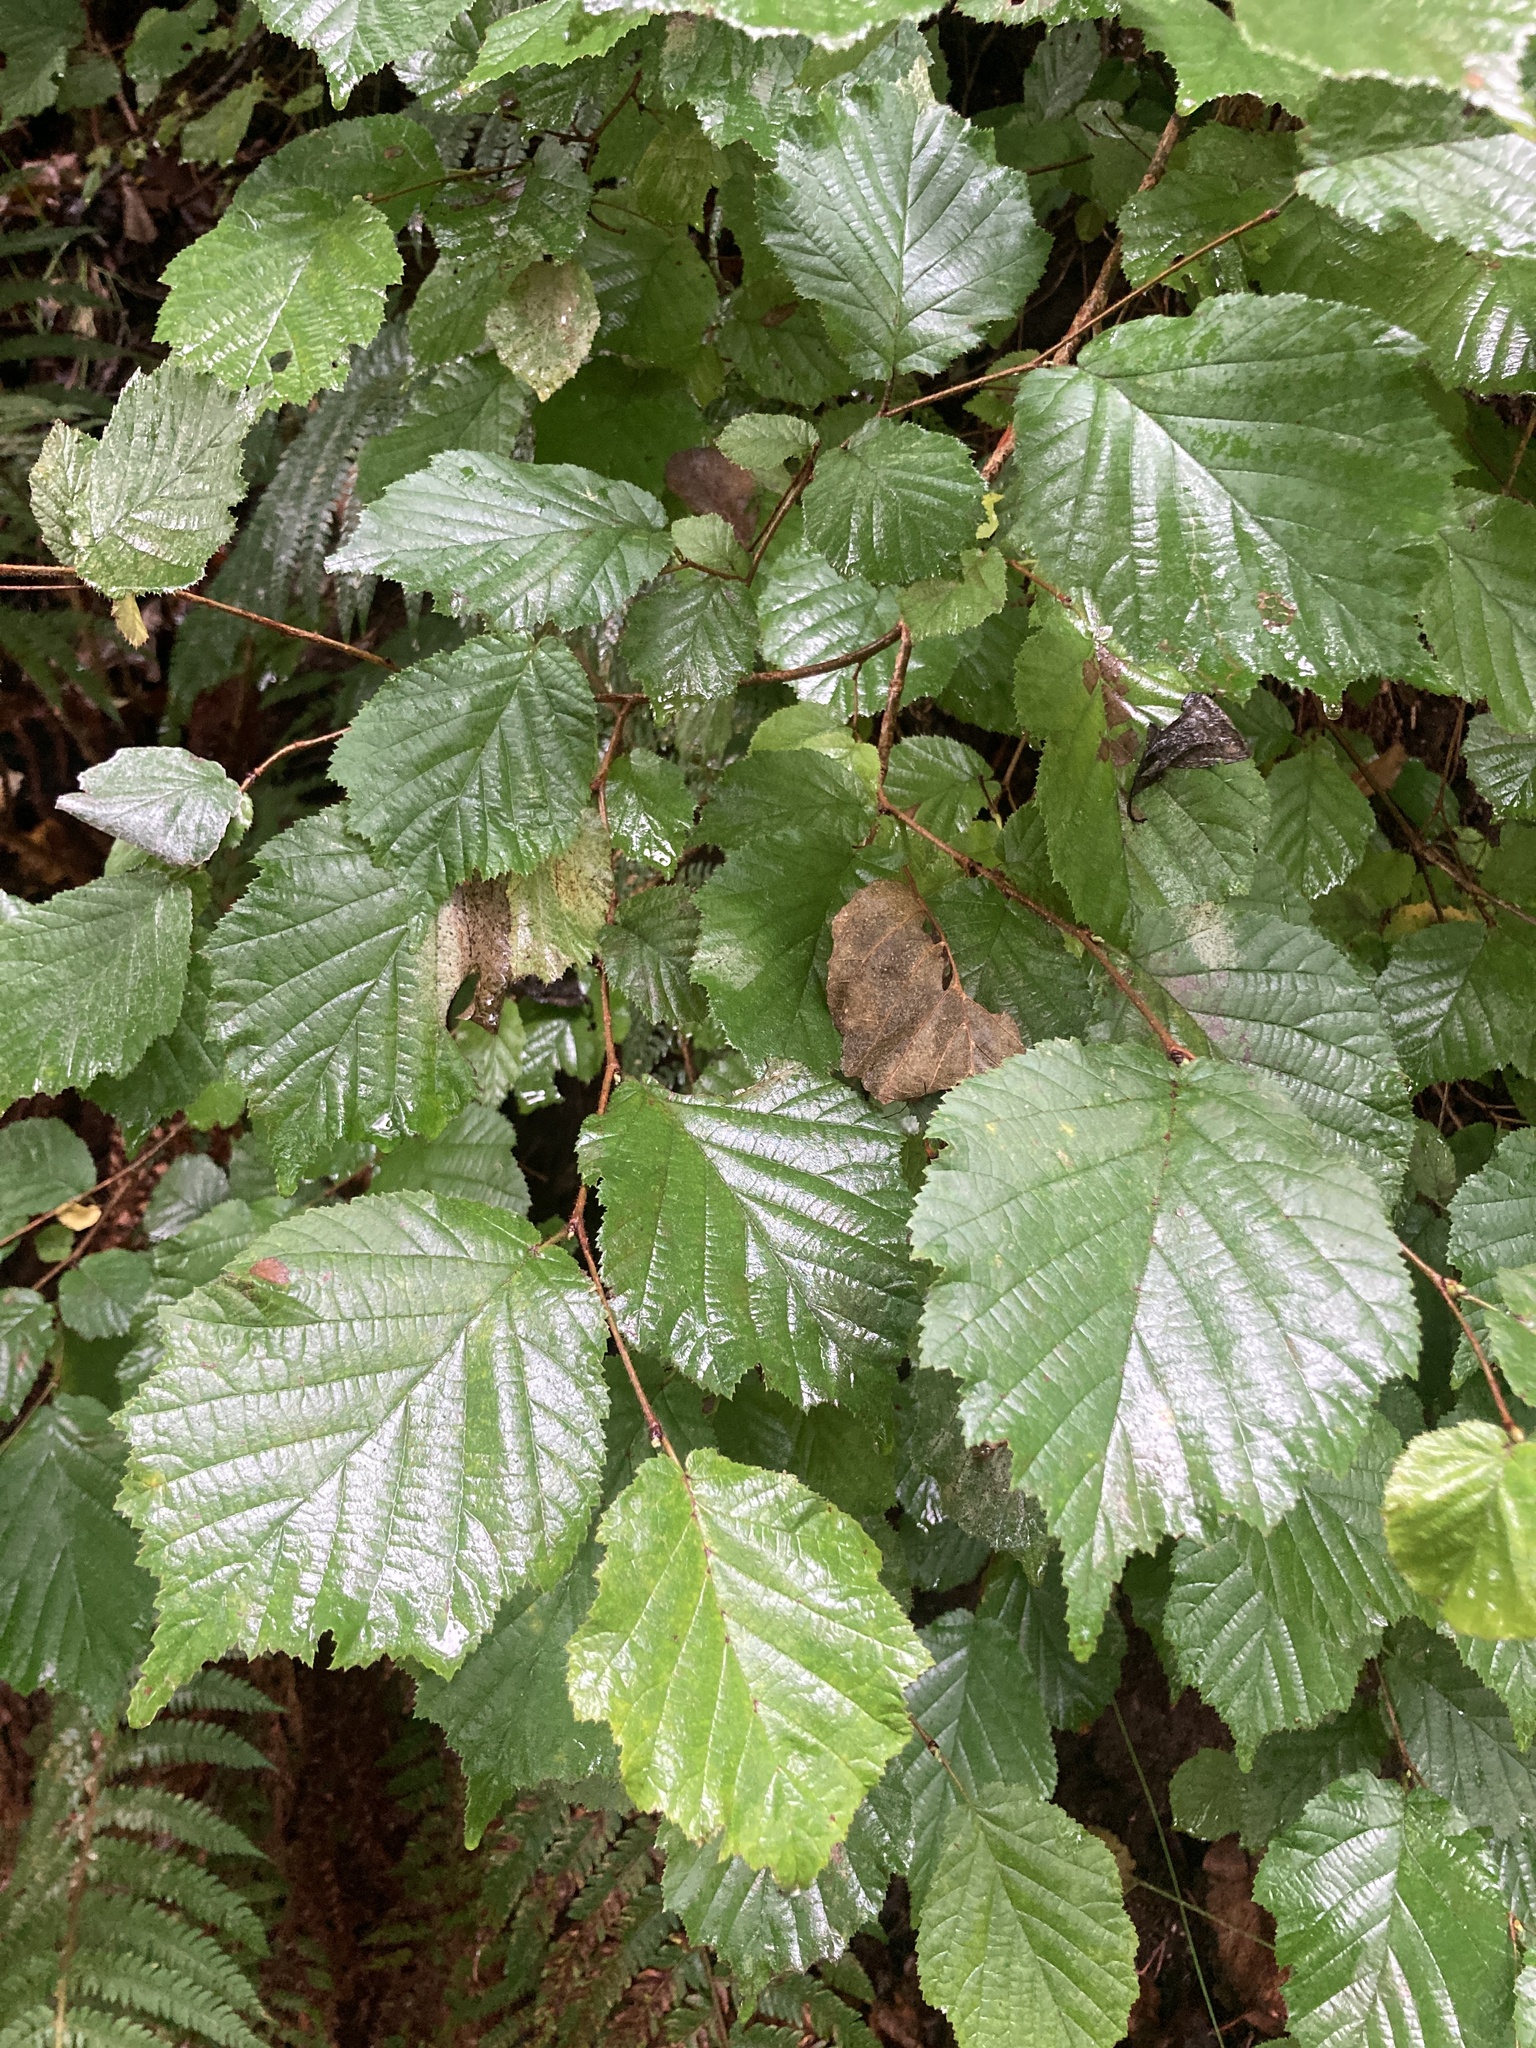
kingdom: Plantae
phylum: Tracheophyta
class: Magnoliopsida
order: Fagales
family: Betulaceae
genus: Corylus
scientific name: Corylus avellana
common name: European hazel
